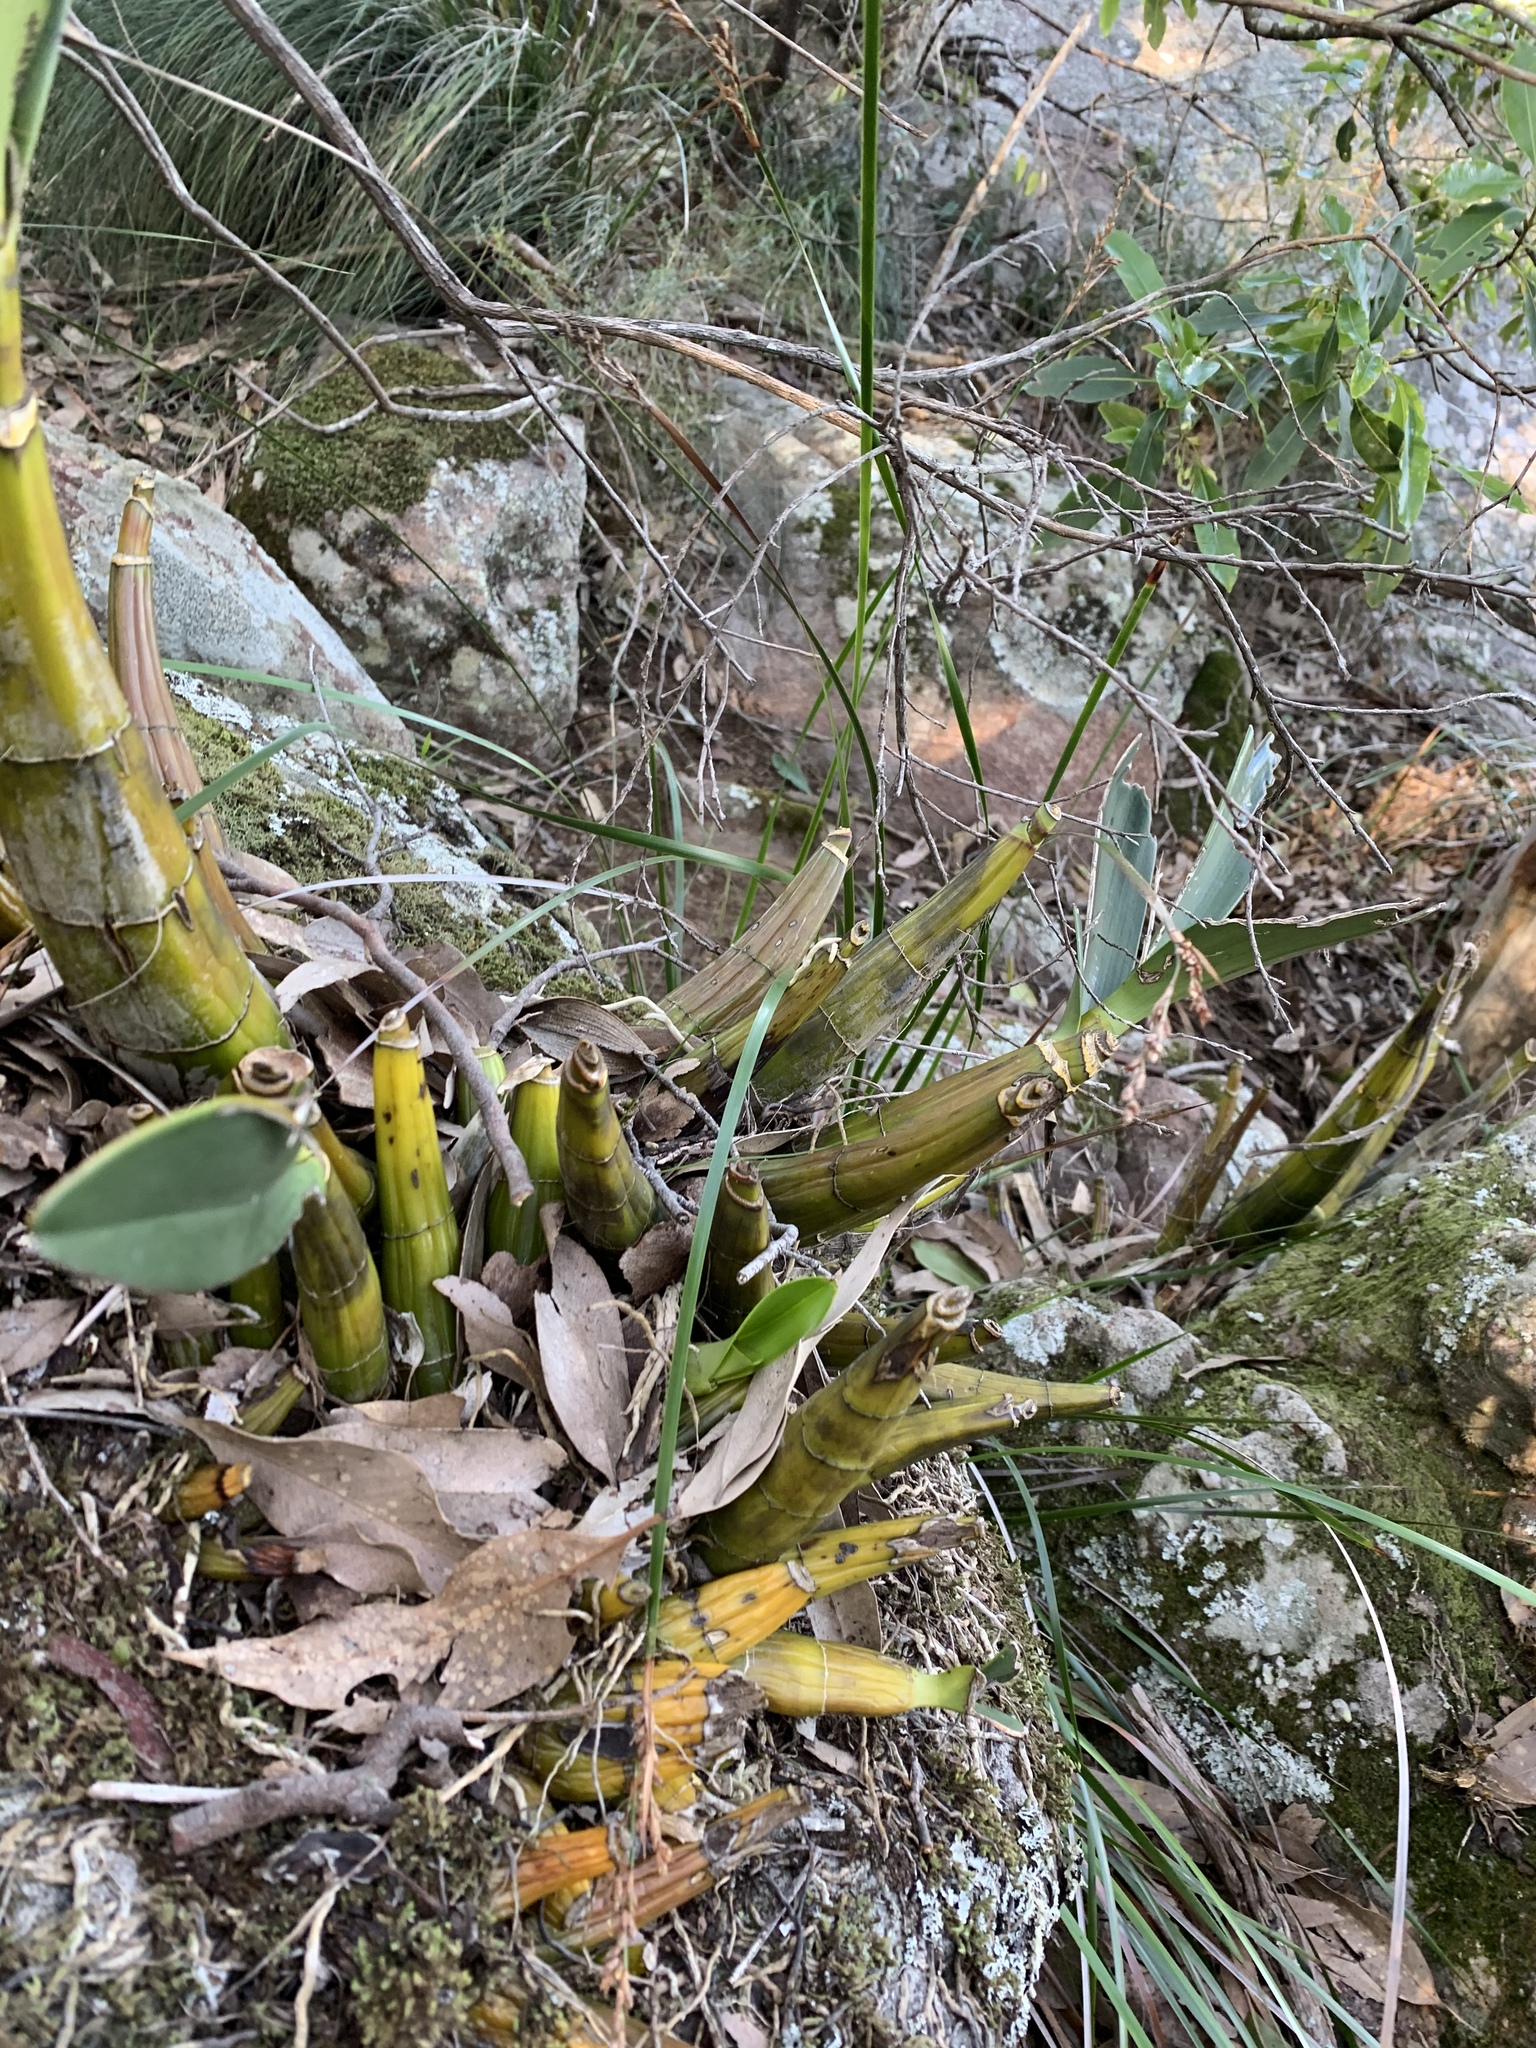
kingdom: Plantae
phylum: Tracheophyta
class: Liliopsida
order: Asparagales
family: Orchidaceae
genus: Dendrobium
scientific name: Dendrobium speciosum
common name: Rock-lily
